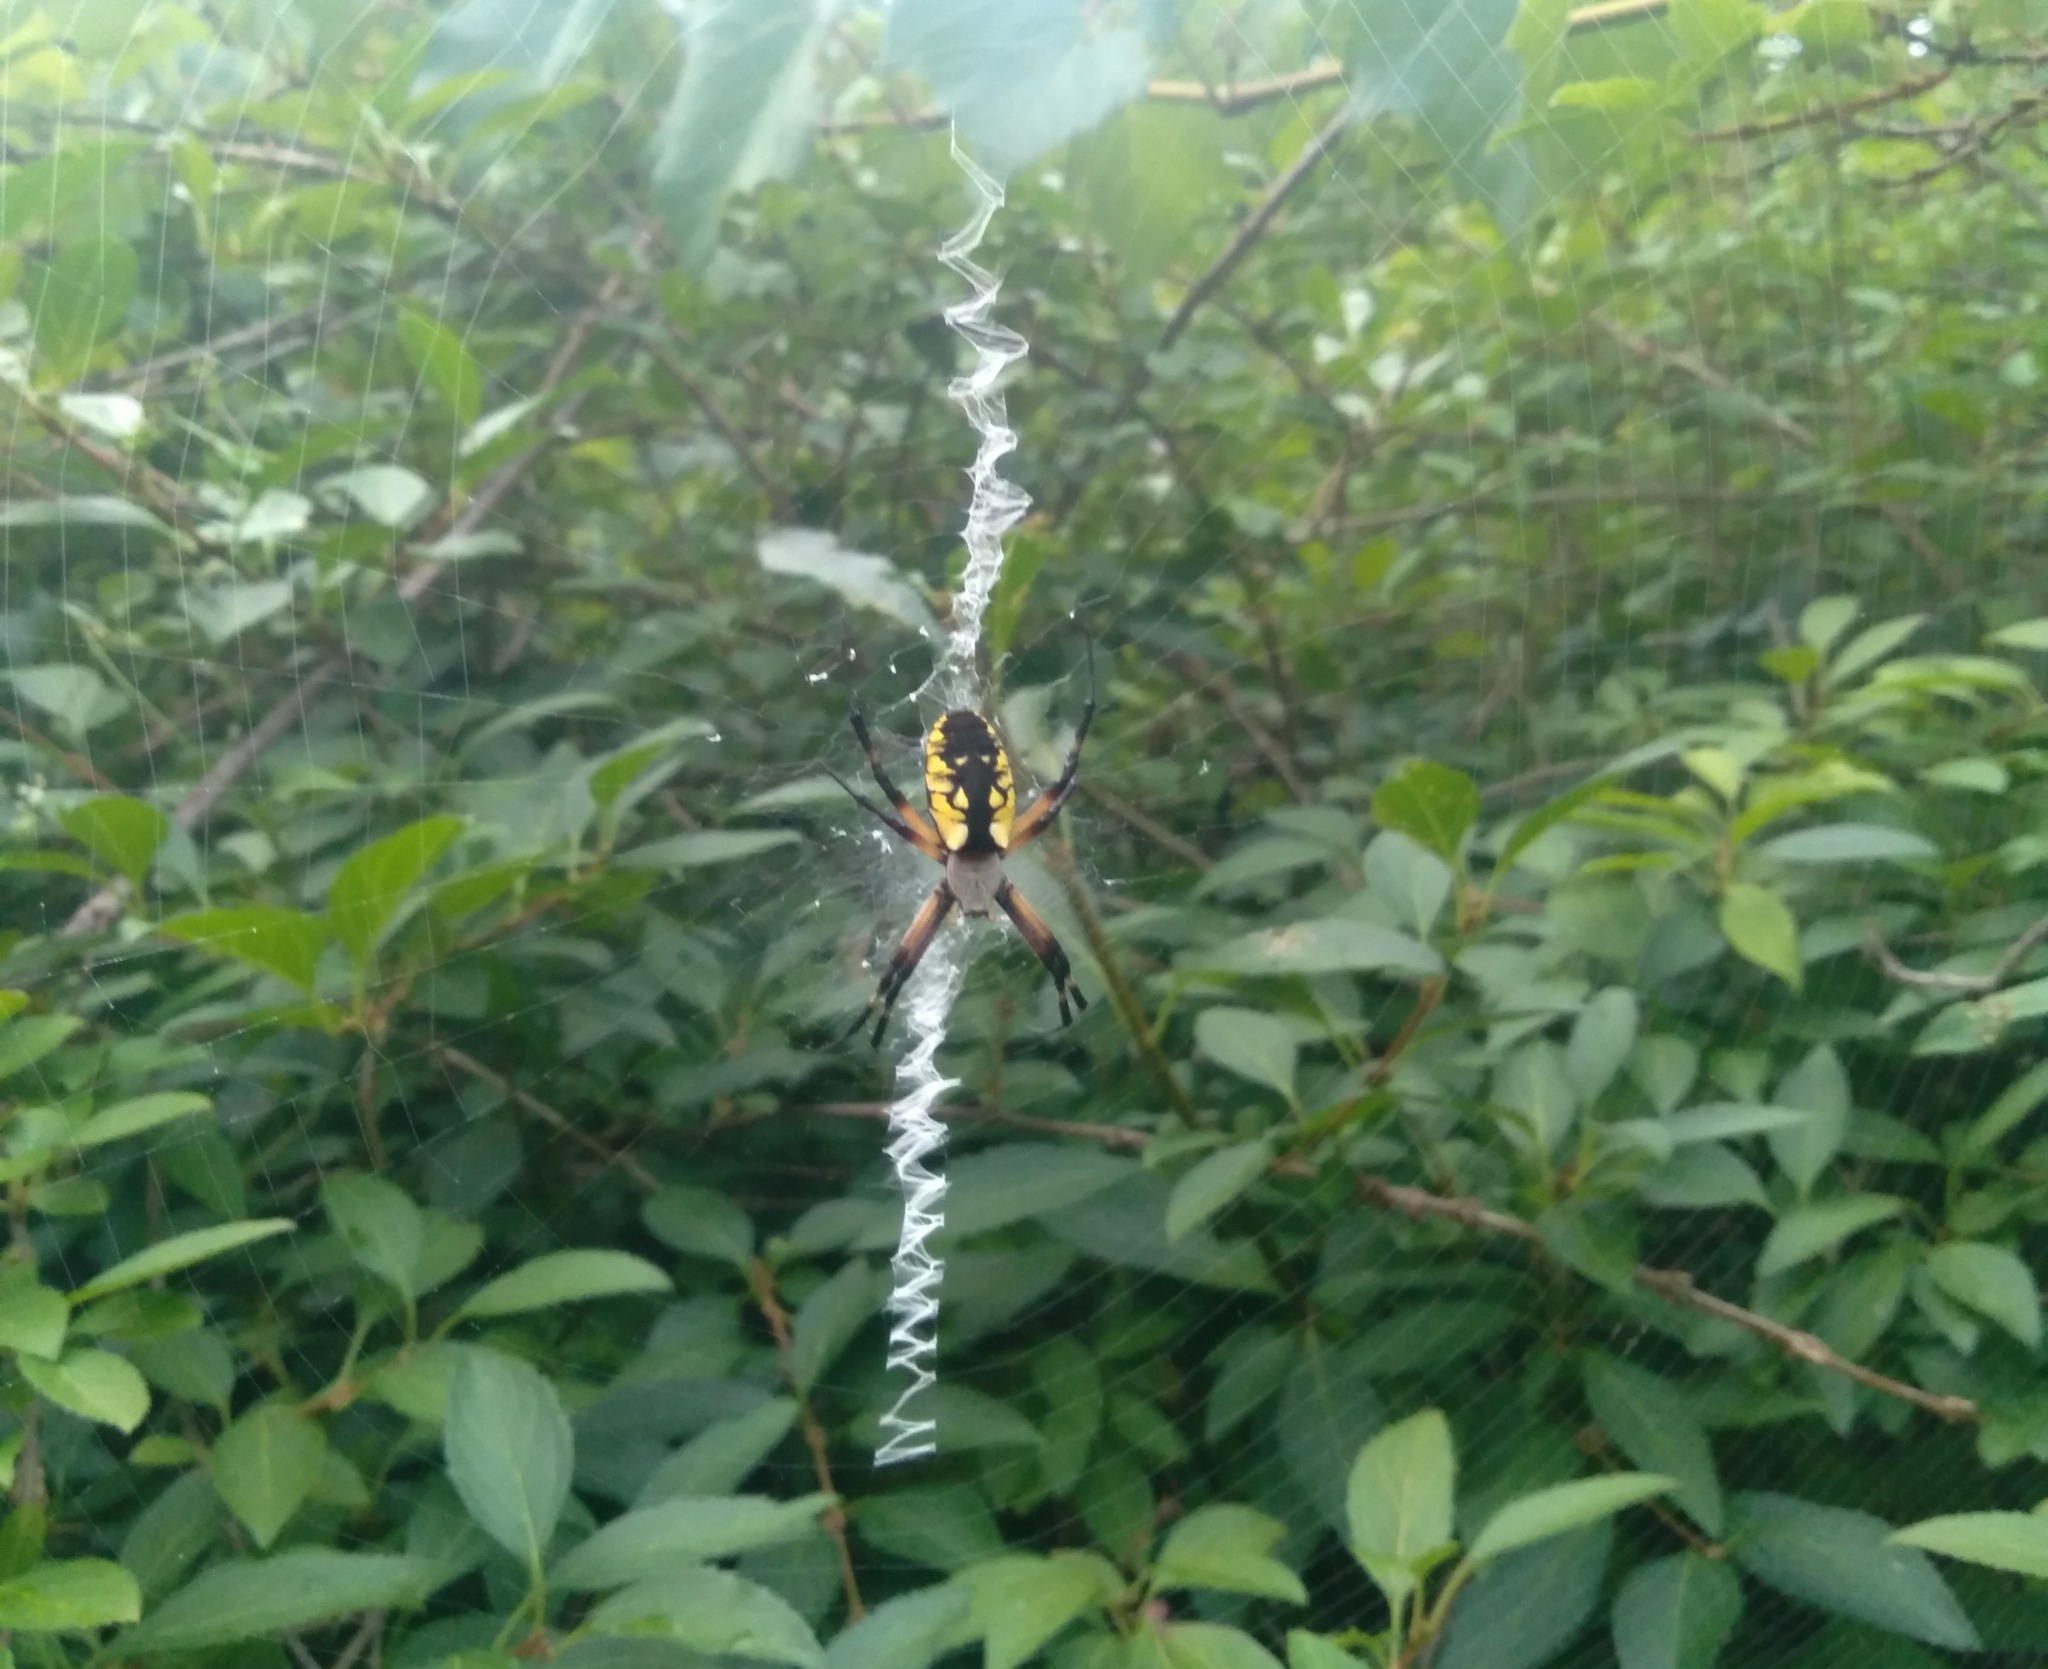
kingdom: Animalia
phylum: Arthropoda
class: Arachnida
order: Araneae
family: Araneidae
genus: Argiope
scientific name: Argiope aurantia
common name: Orb weavers
